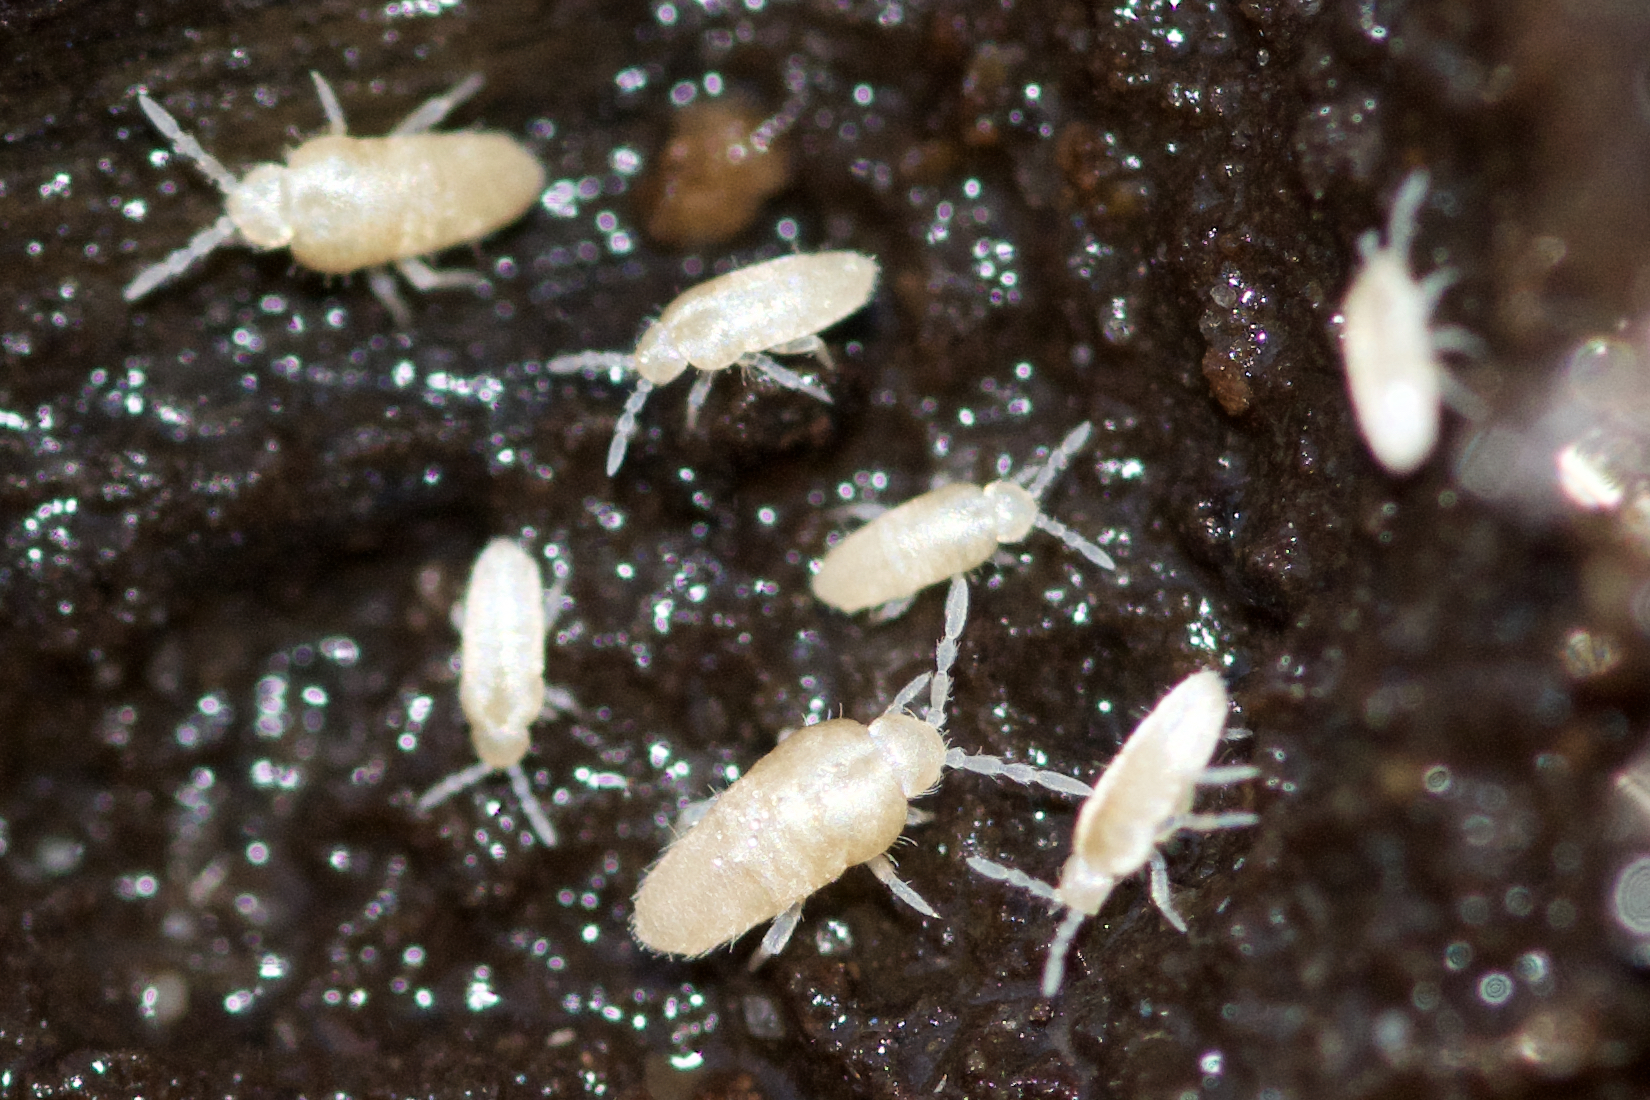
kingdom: Animalia
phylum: Arthropoda
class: Collembola
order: Entomobryomorpha
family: Entomobryidae
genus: Pseudosinella
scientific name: Pseudosinella rolfsi
